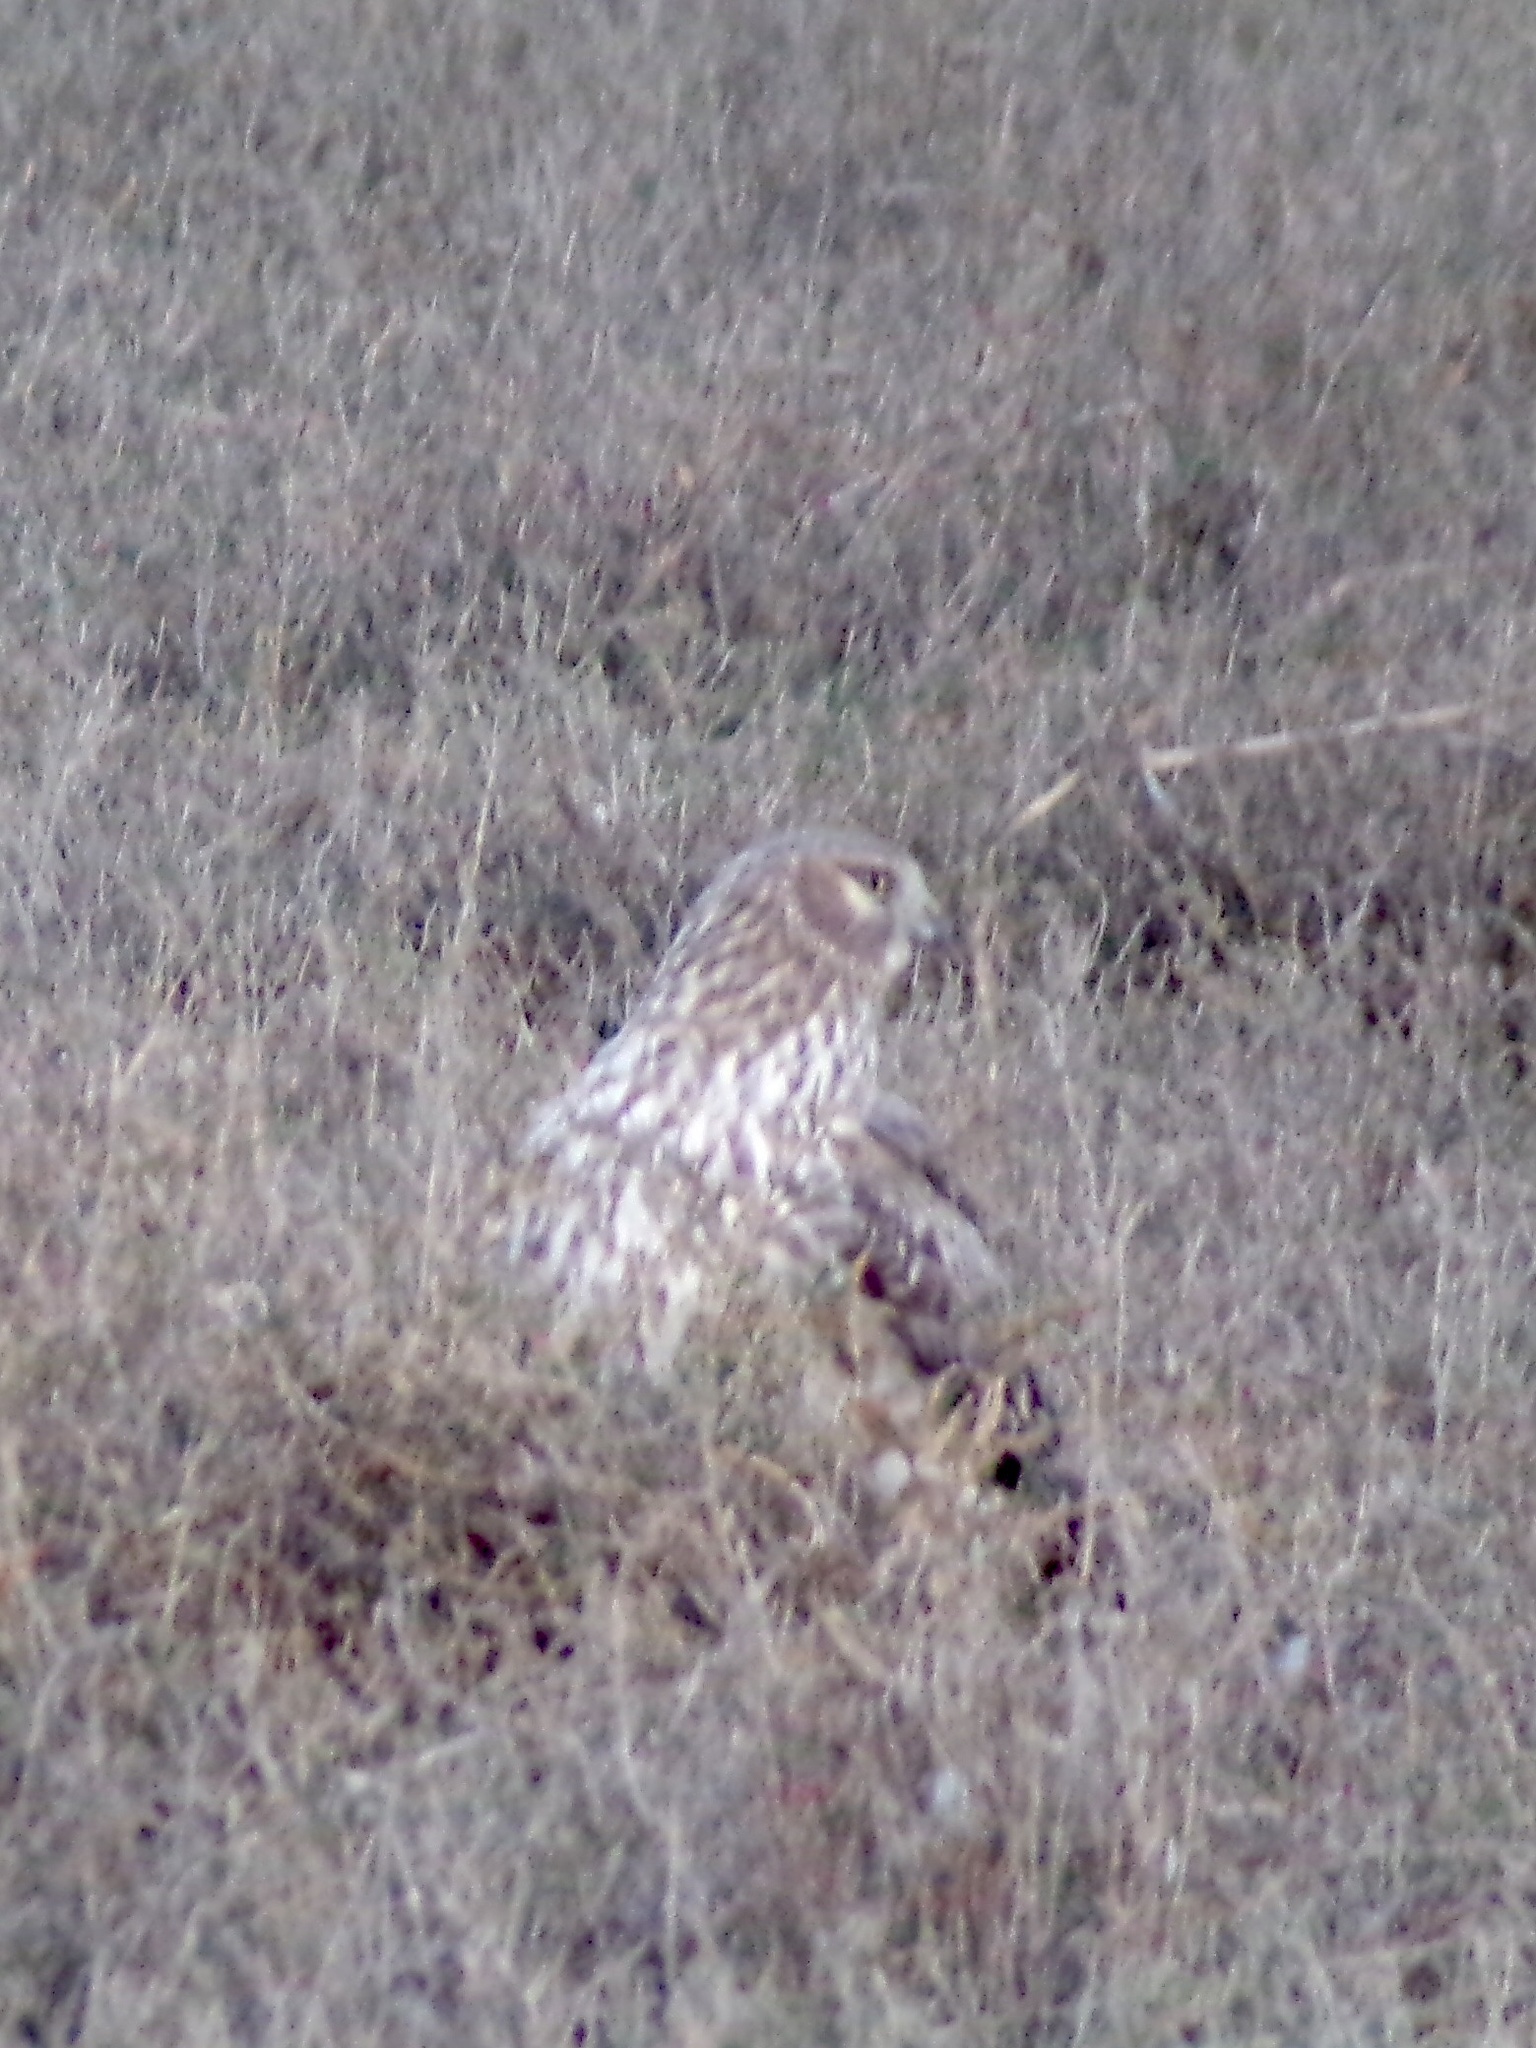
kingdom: Animalia
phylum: Chordata
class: Aves
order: Accipitriformes
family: Accipitridae
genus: Circus
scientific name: Circus cyaneus
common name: Hen harrier
